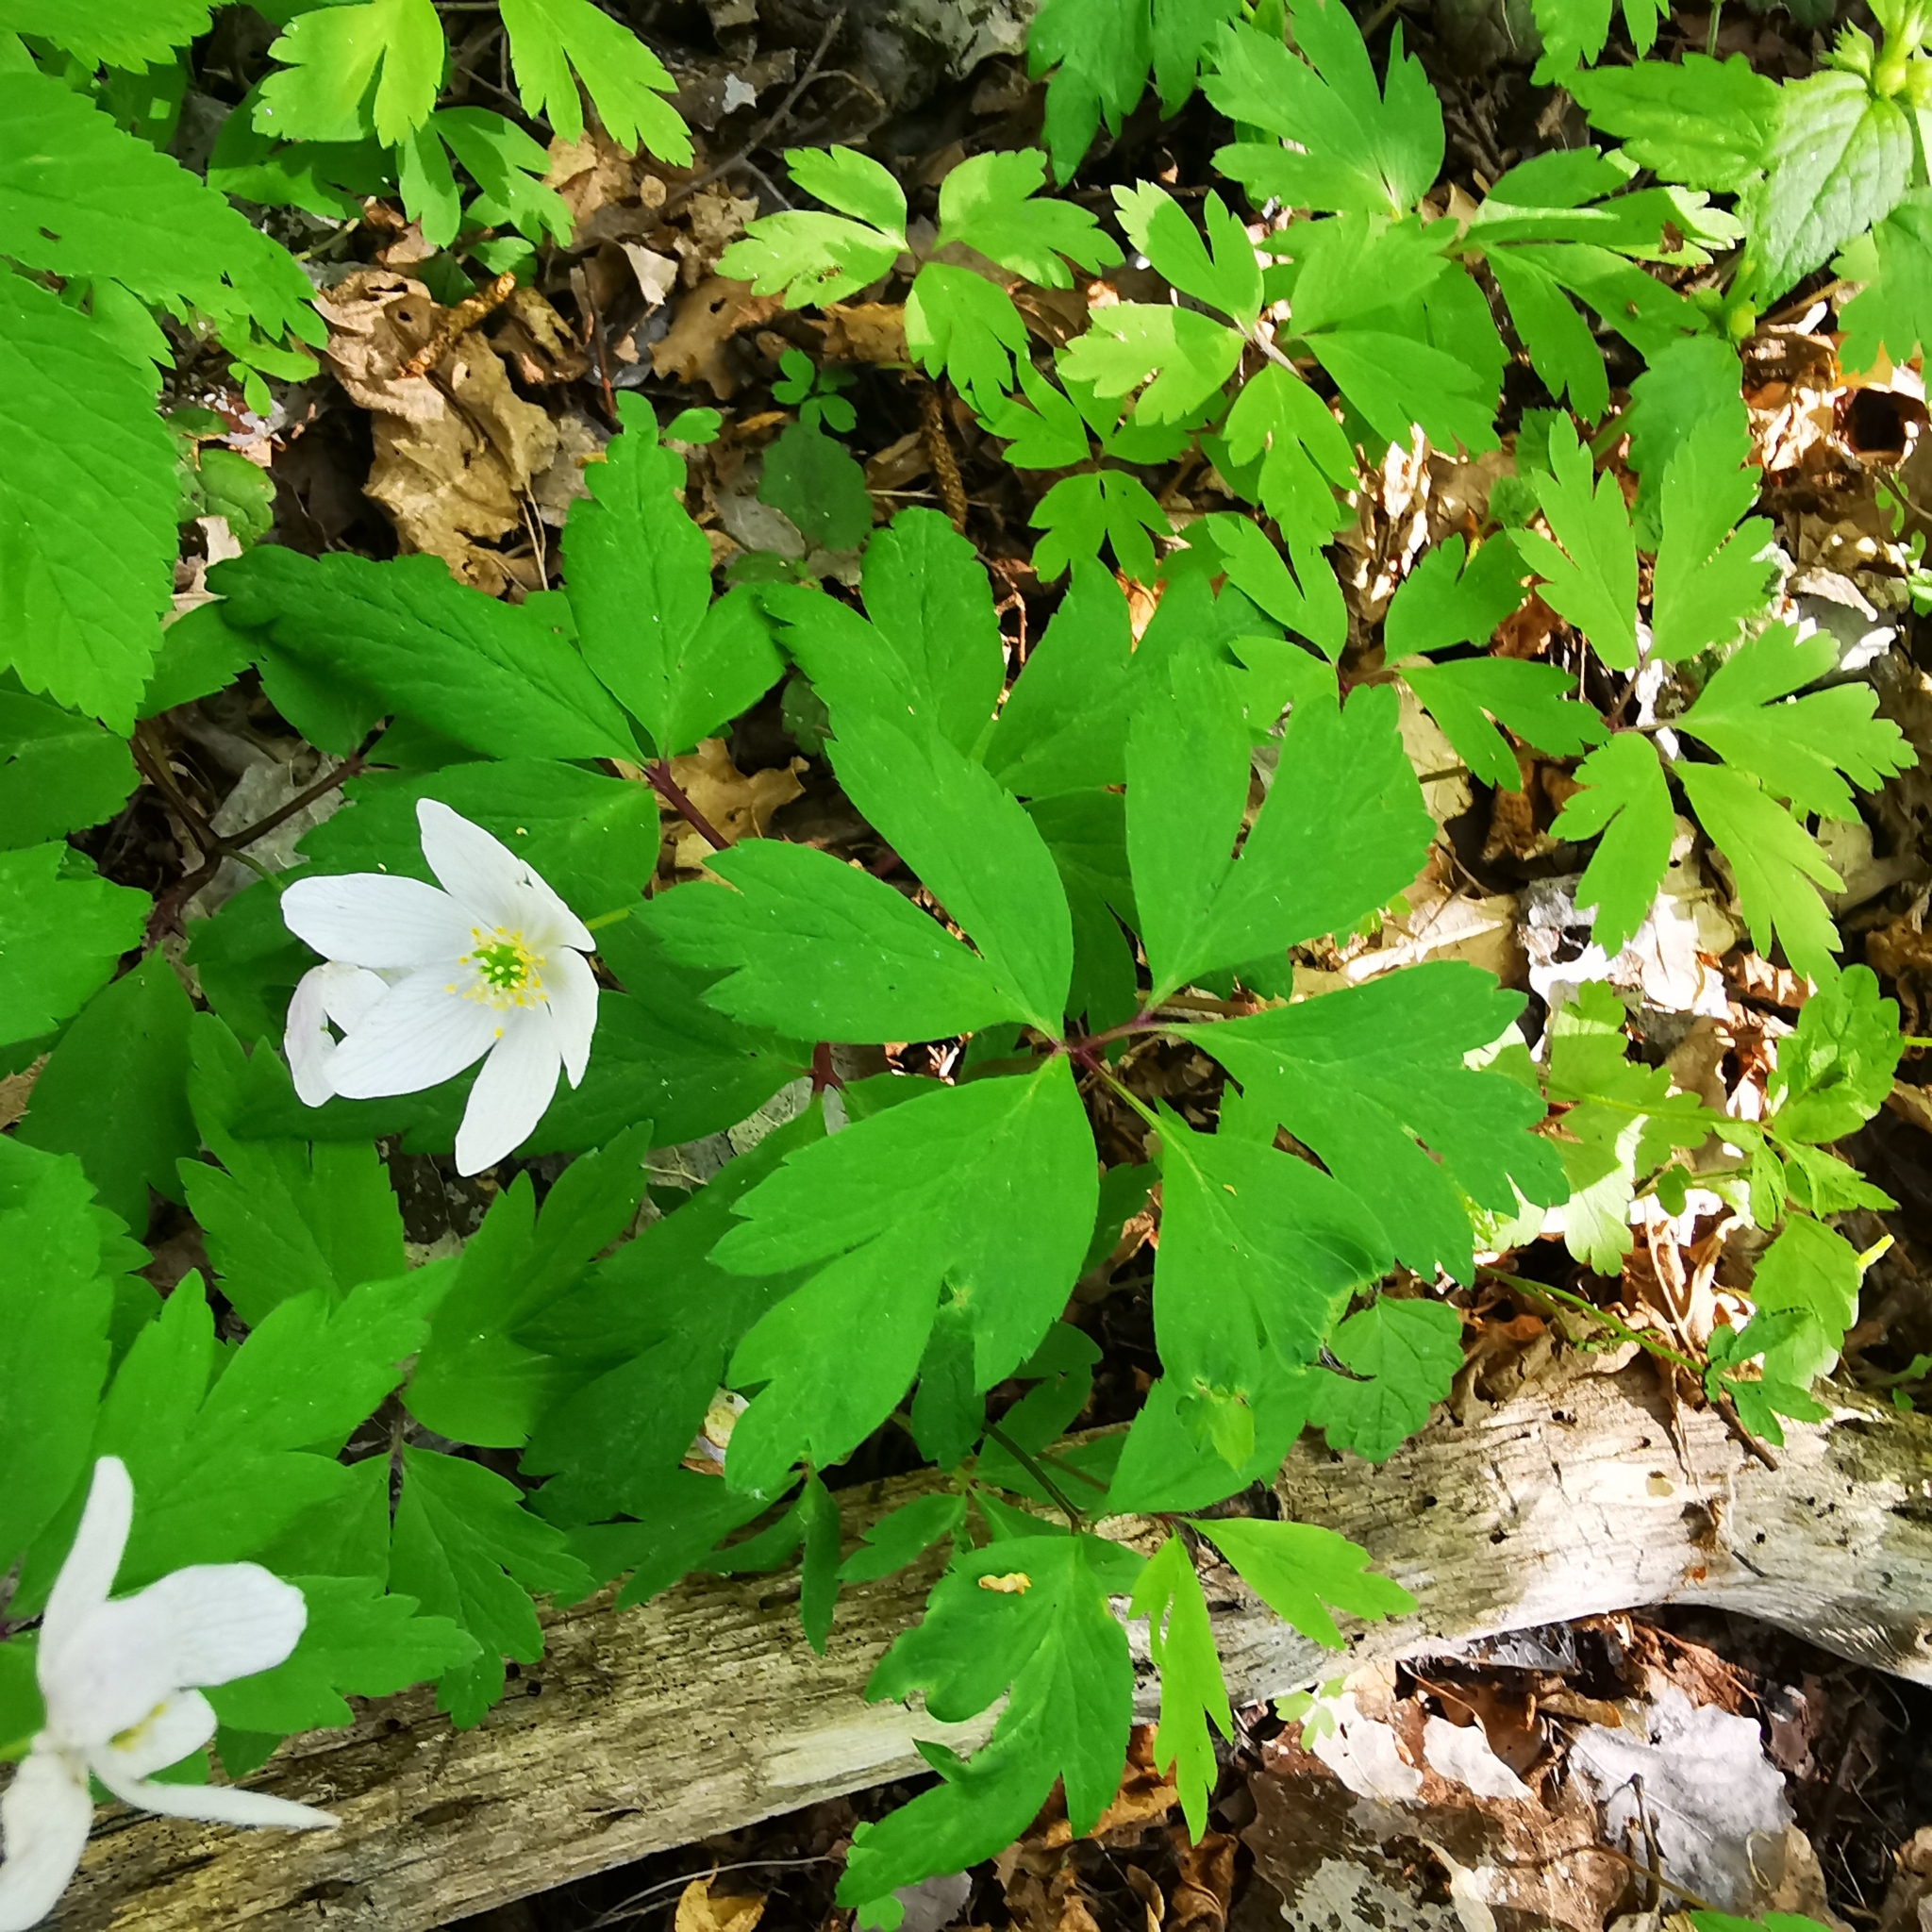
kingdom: Plantae
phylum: Tracheophyta
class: Magnoliopsida
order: Ranunculales
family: Ranunculaceae
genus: Anemone
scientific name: Anemone nemorosa
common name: Wood anemone
